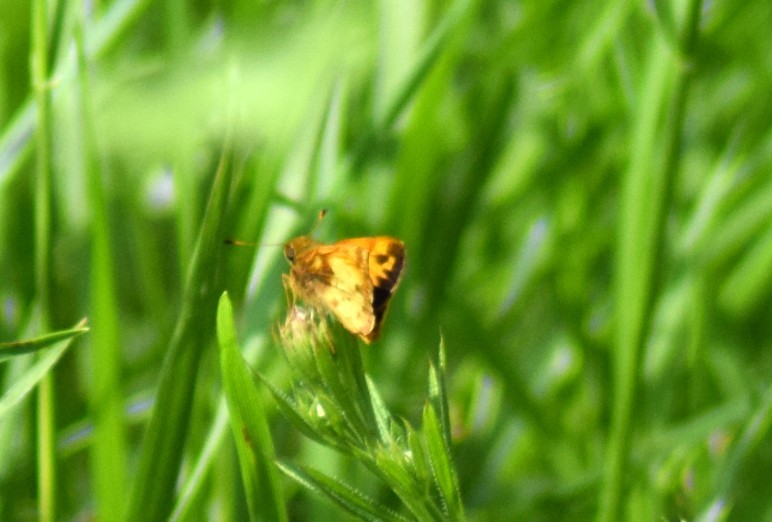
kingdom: Animalia
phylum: Arthropoda
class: Insecta
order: Lepidoptera
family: Hesperiidae
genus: Lon
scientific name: Lon zabulon
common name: Zabulon skipper
